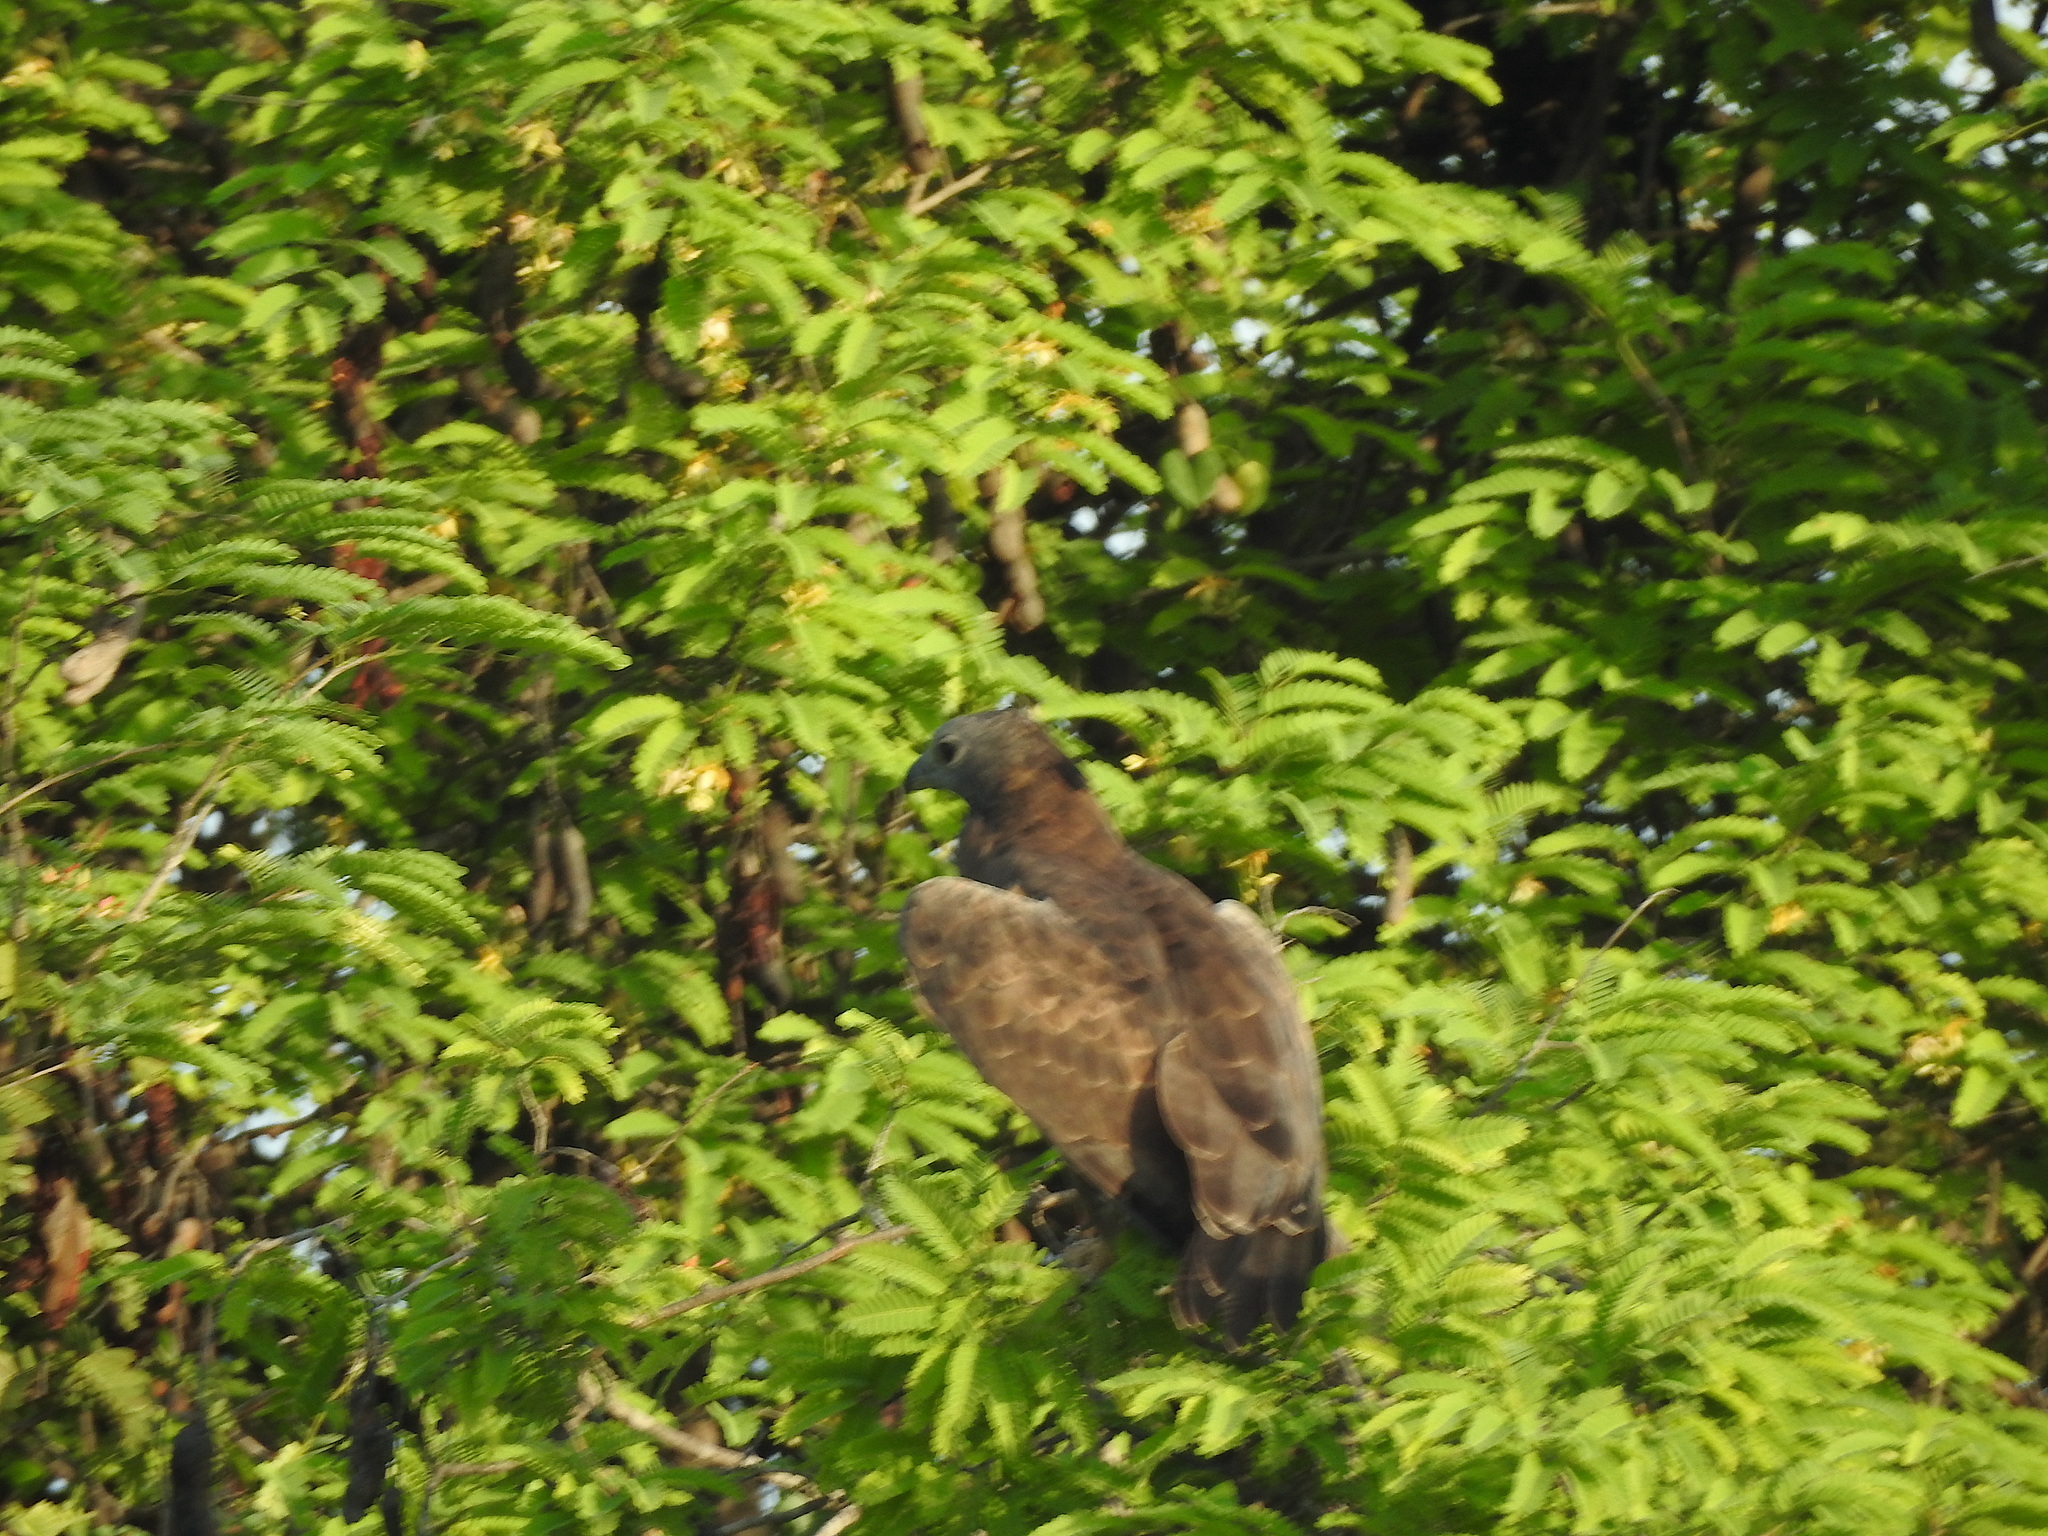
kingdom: Animalia
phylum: Chordata
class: Aves
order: Accipitriformes
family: Accipitridae
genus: Pernis
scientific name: Pernis ptilorhynchus
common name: Crested honey buzzard
